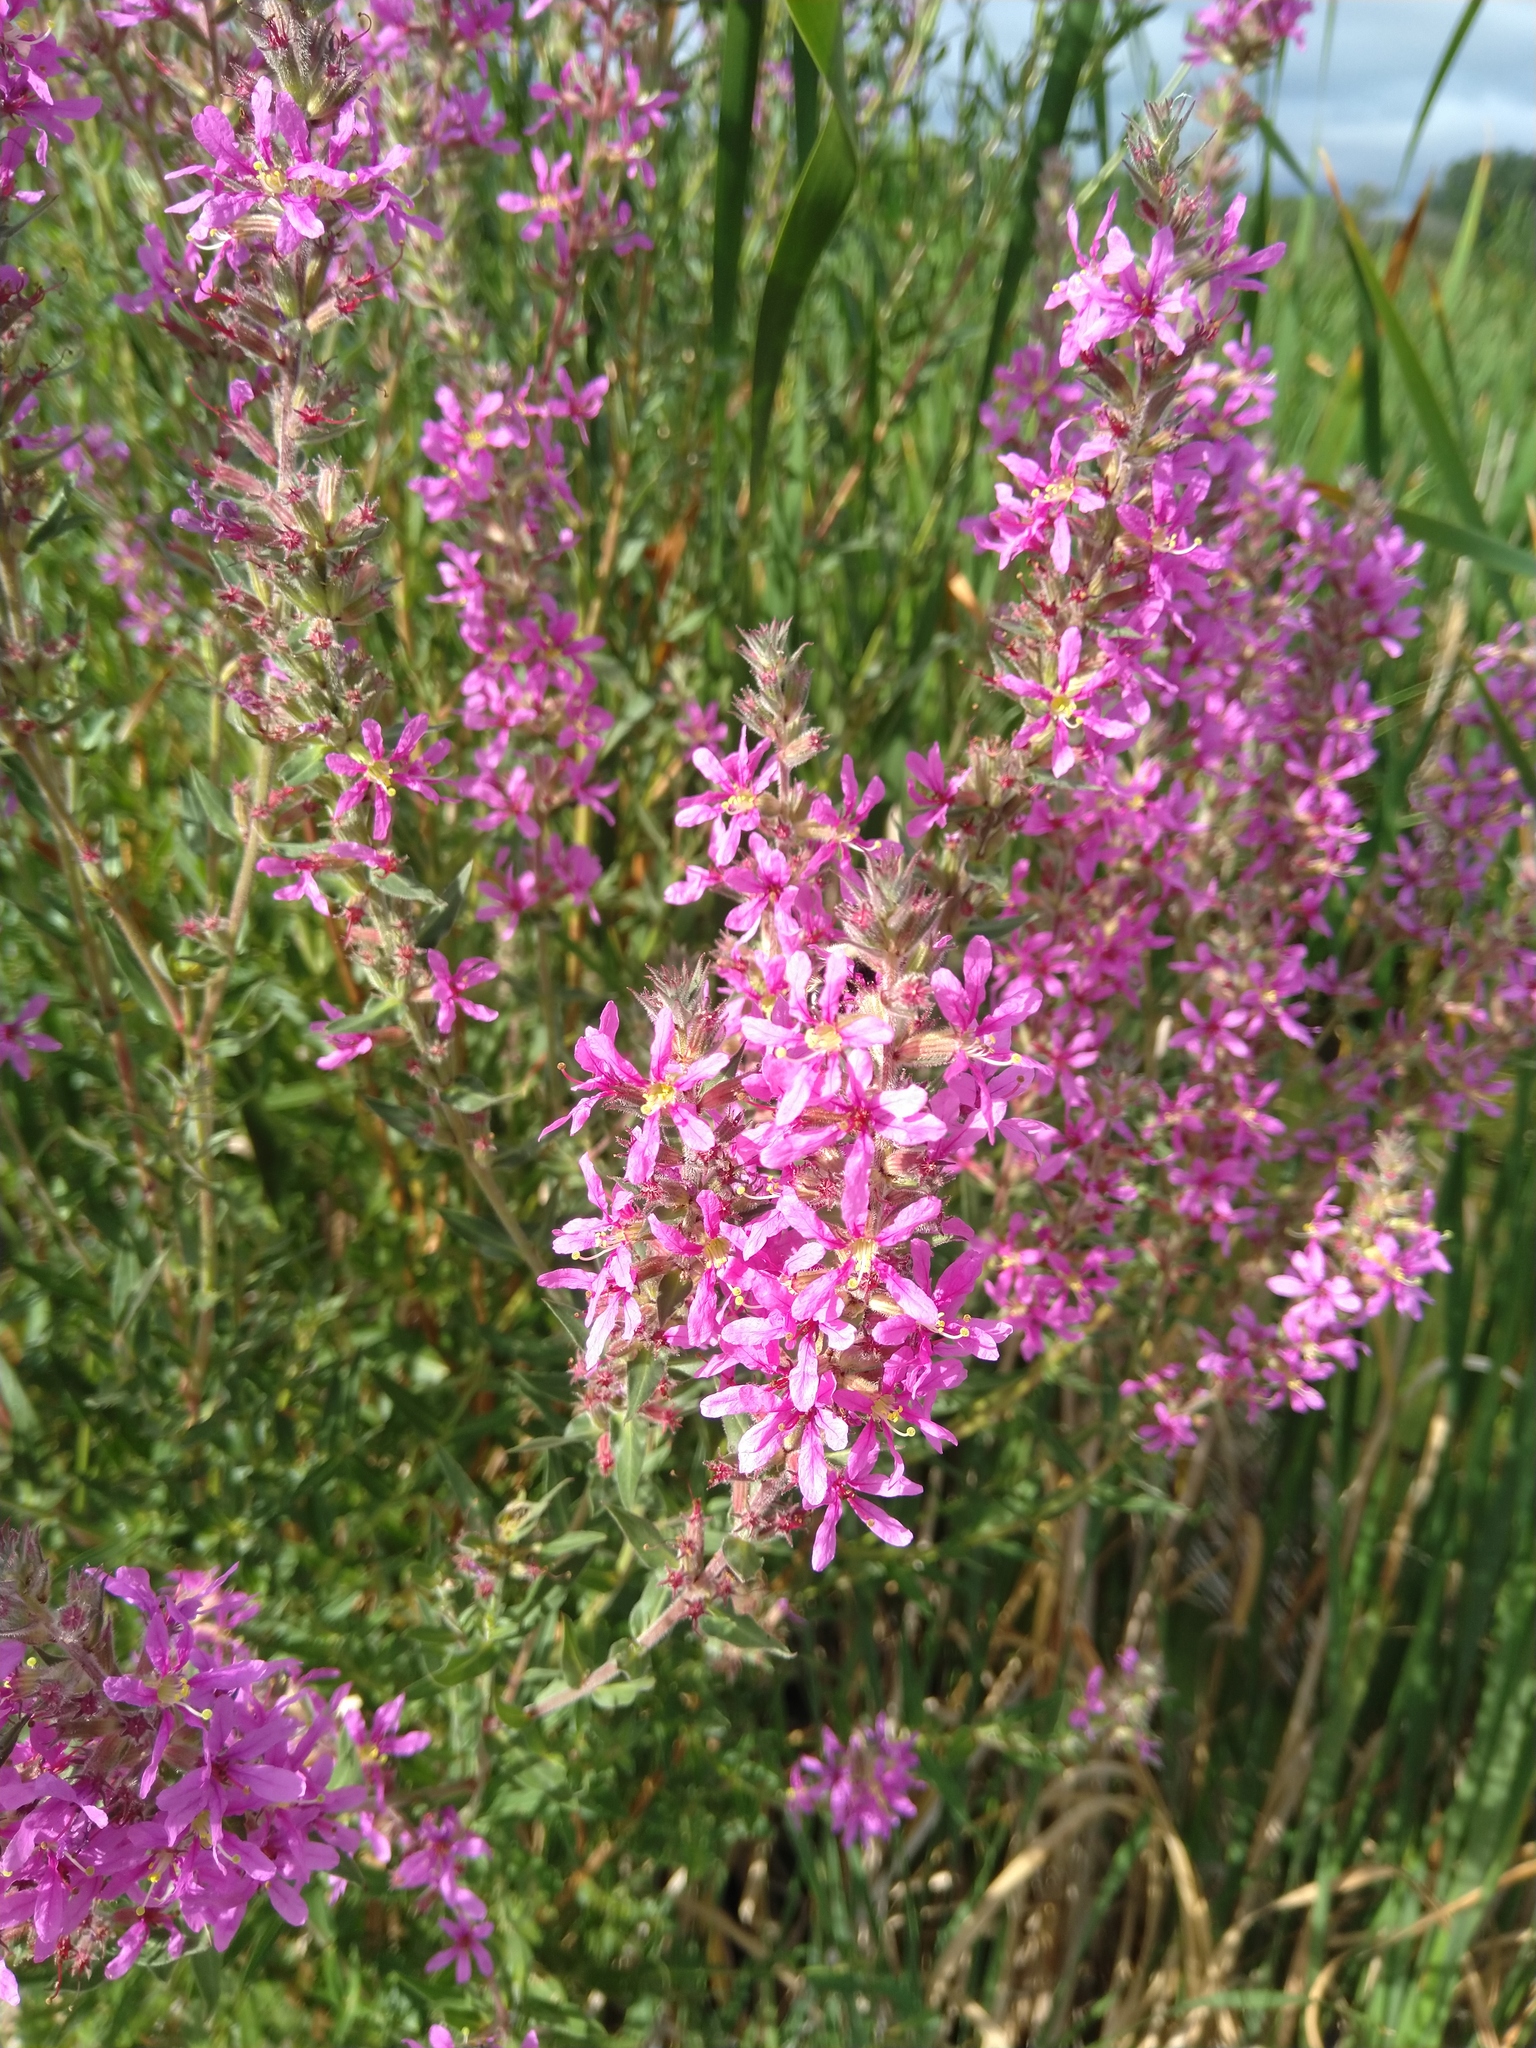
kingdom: Plantae
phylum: Tracheophyta
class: Magnoliopsida
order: Myrtales
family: Lythraceae
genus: Lythrum
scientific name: Lythrum salicaria
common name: Purple loosestrife
